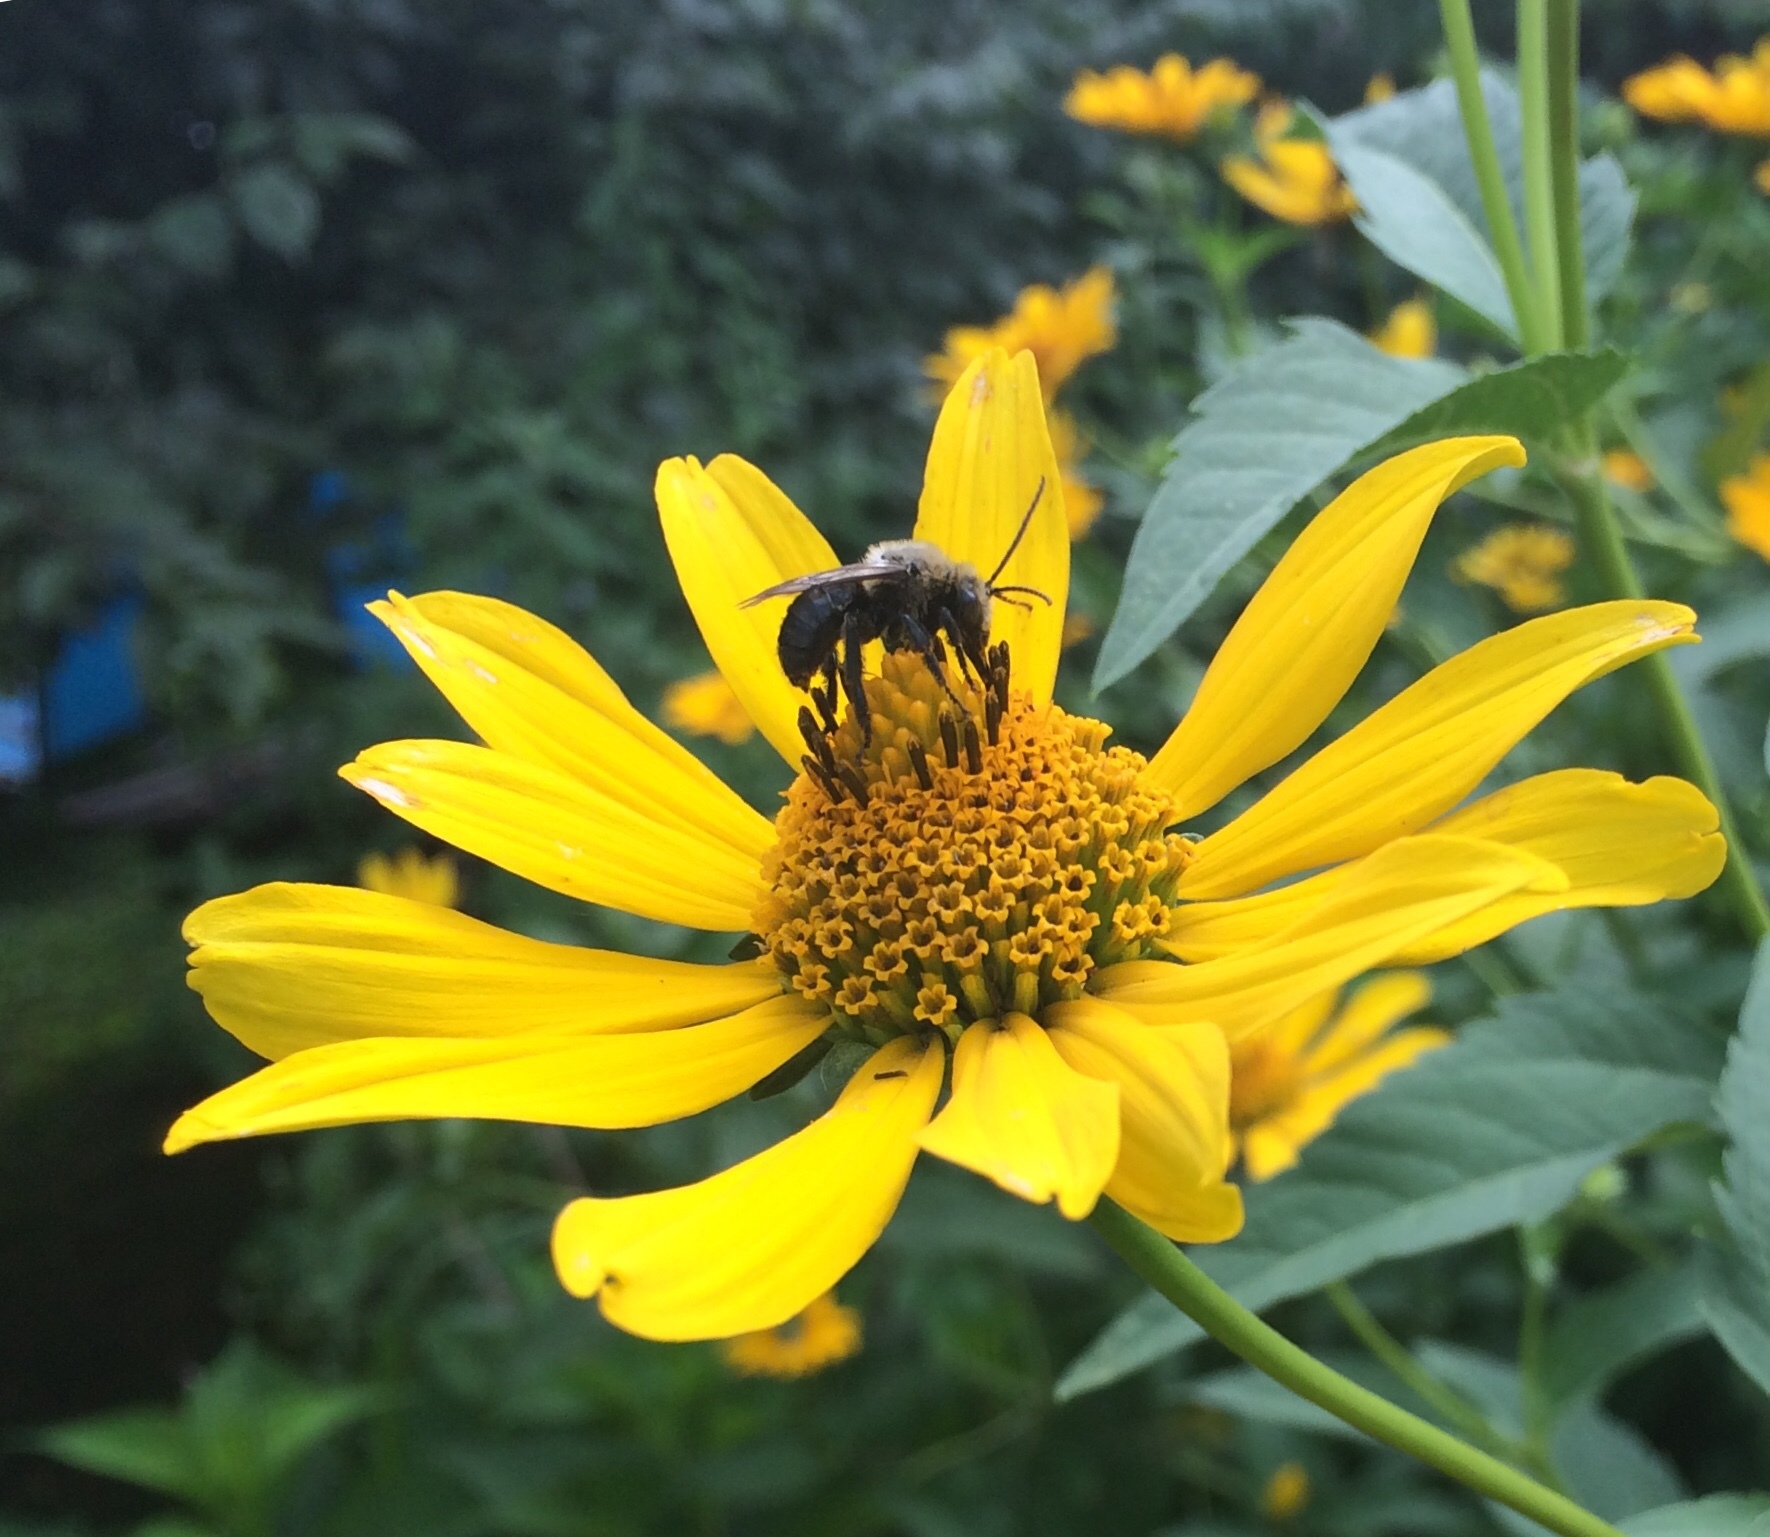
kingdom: Animalia
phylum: Arthropoda
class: Insecta
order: Hymenoptera
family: Apidae
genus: Melissodes
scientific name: Melissodes desponsus
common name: Thistle long-horned bee
